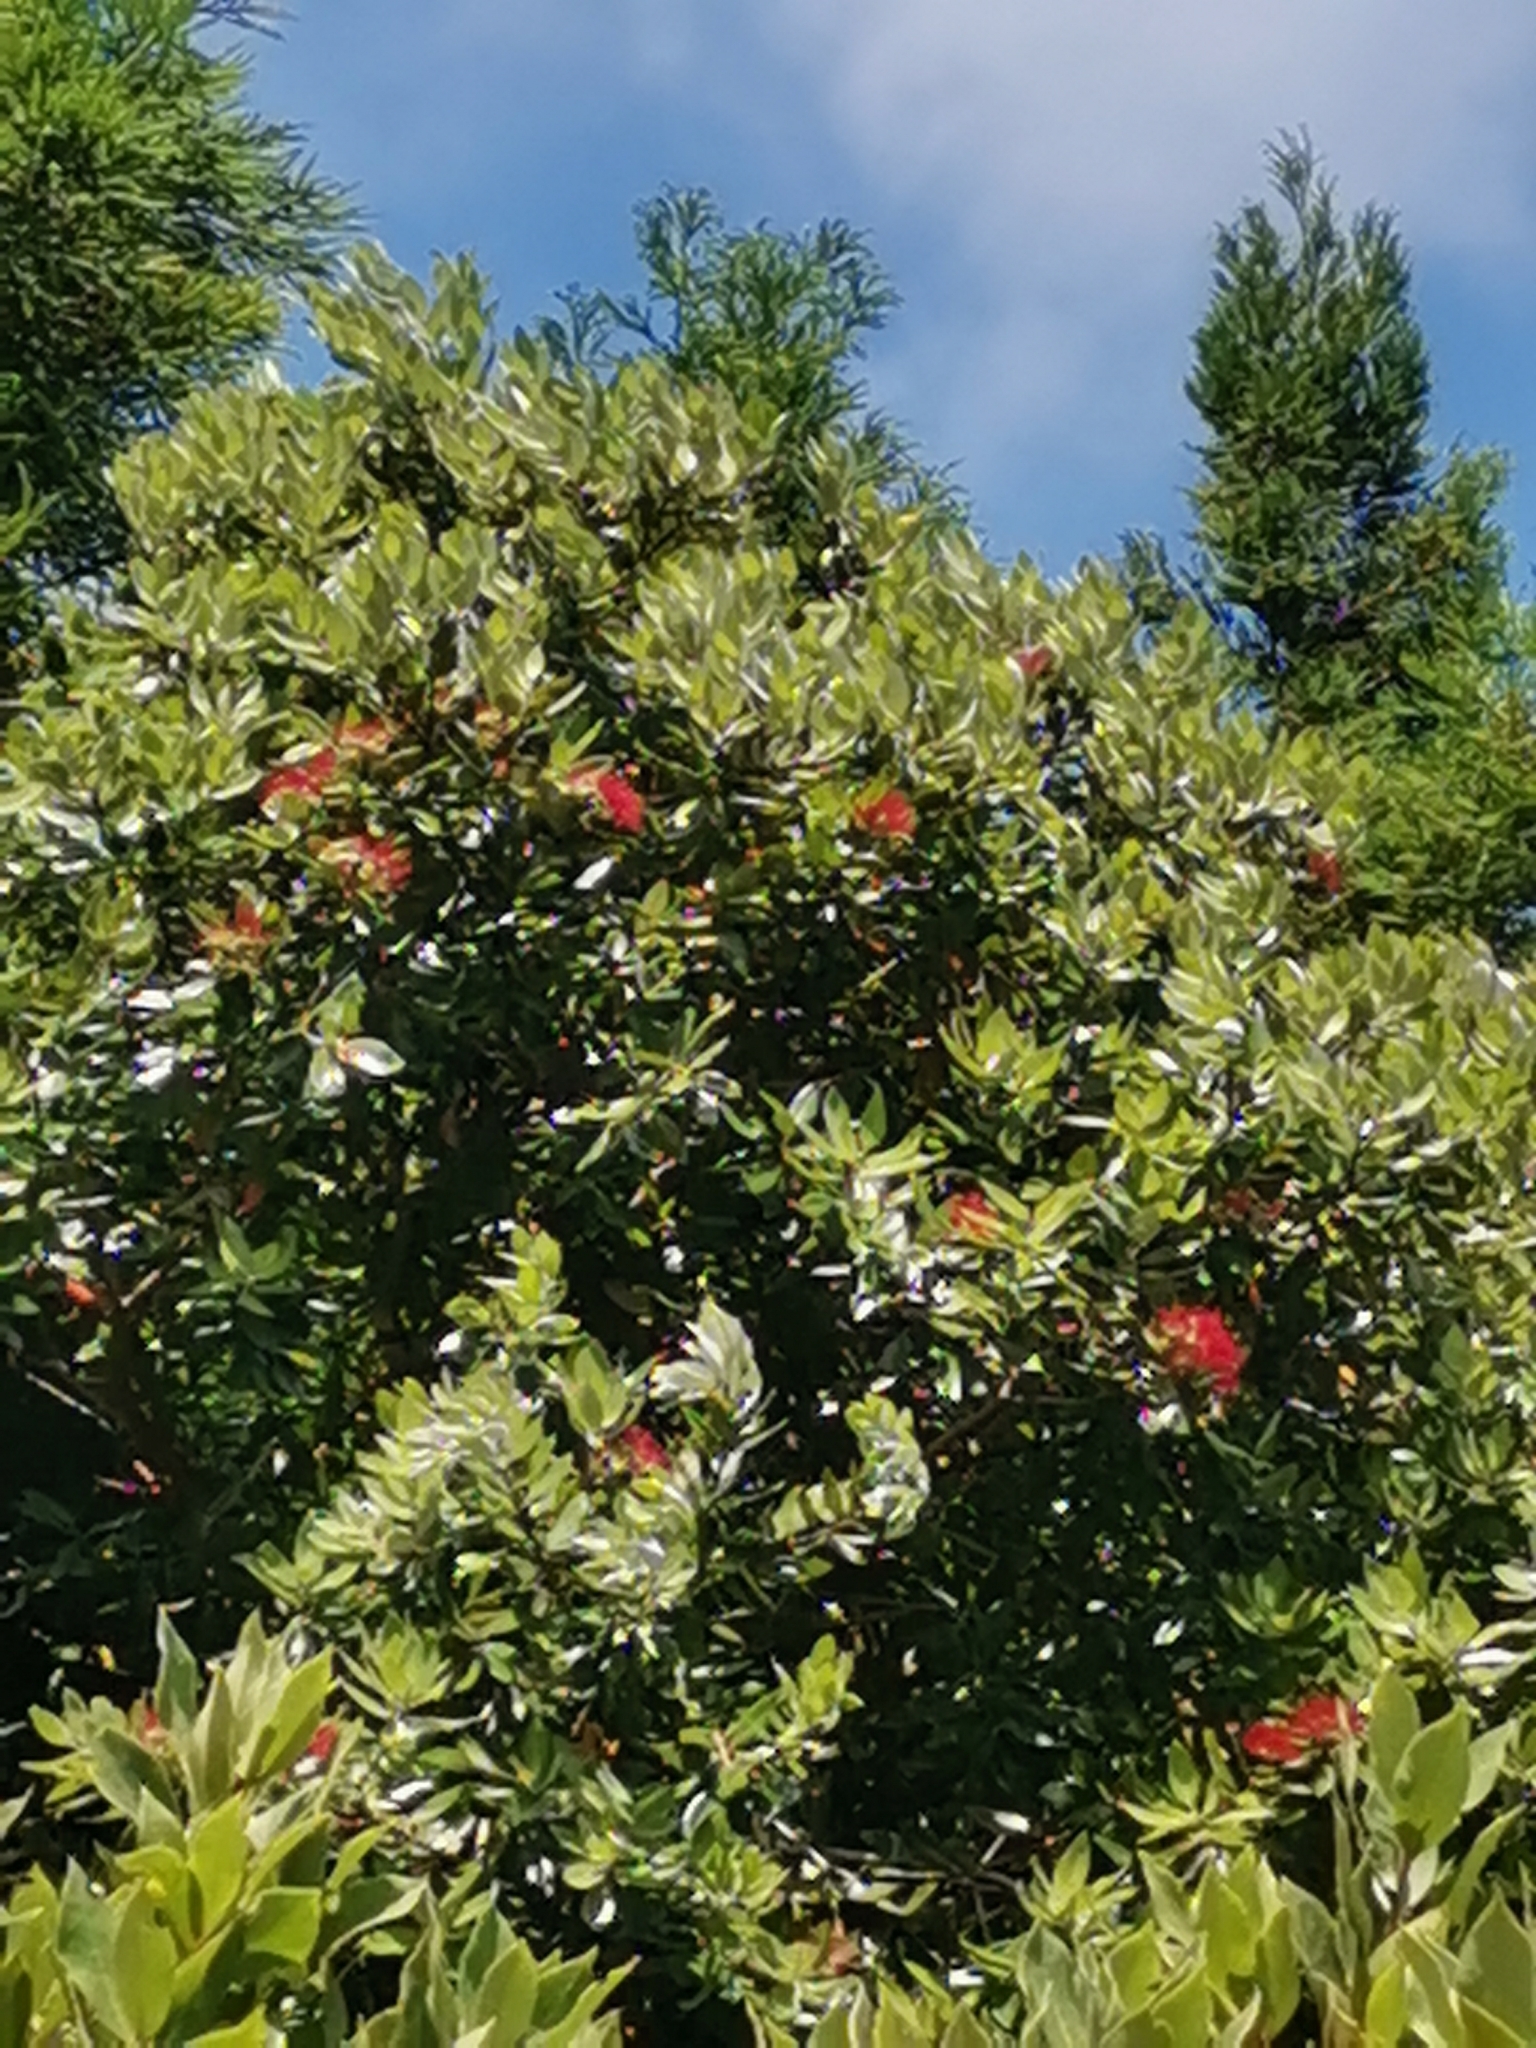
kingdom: Plantae
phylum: Tracheophyta
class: Magnoliopsida
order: Myrtales
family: Myrtaceae
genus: Metrosideros
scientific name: Metrosideros excelsa
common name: New zealand christmastree
